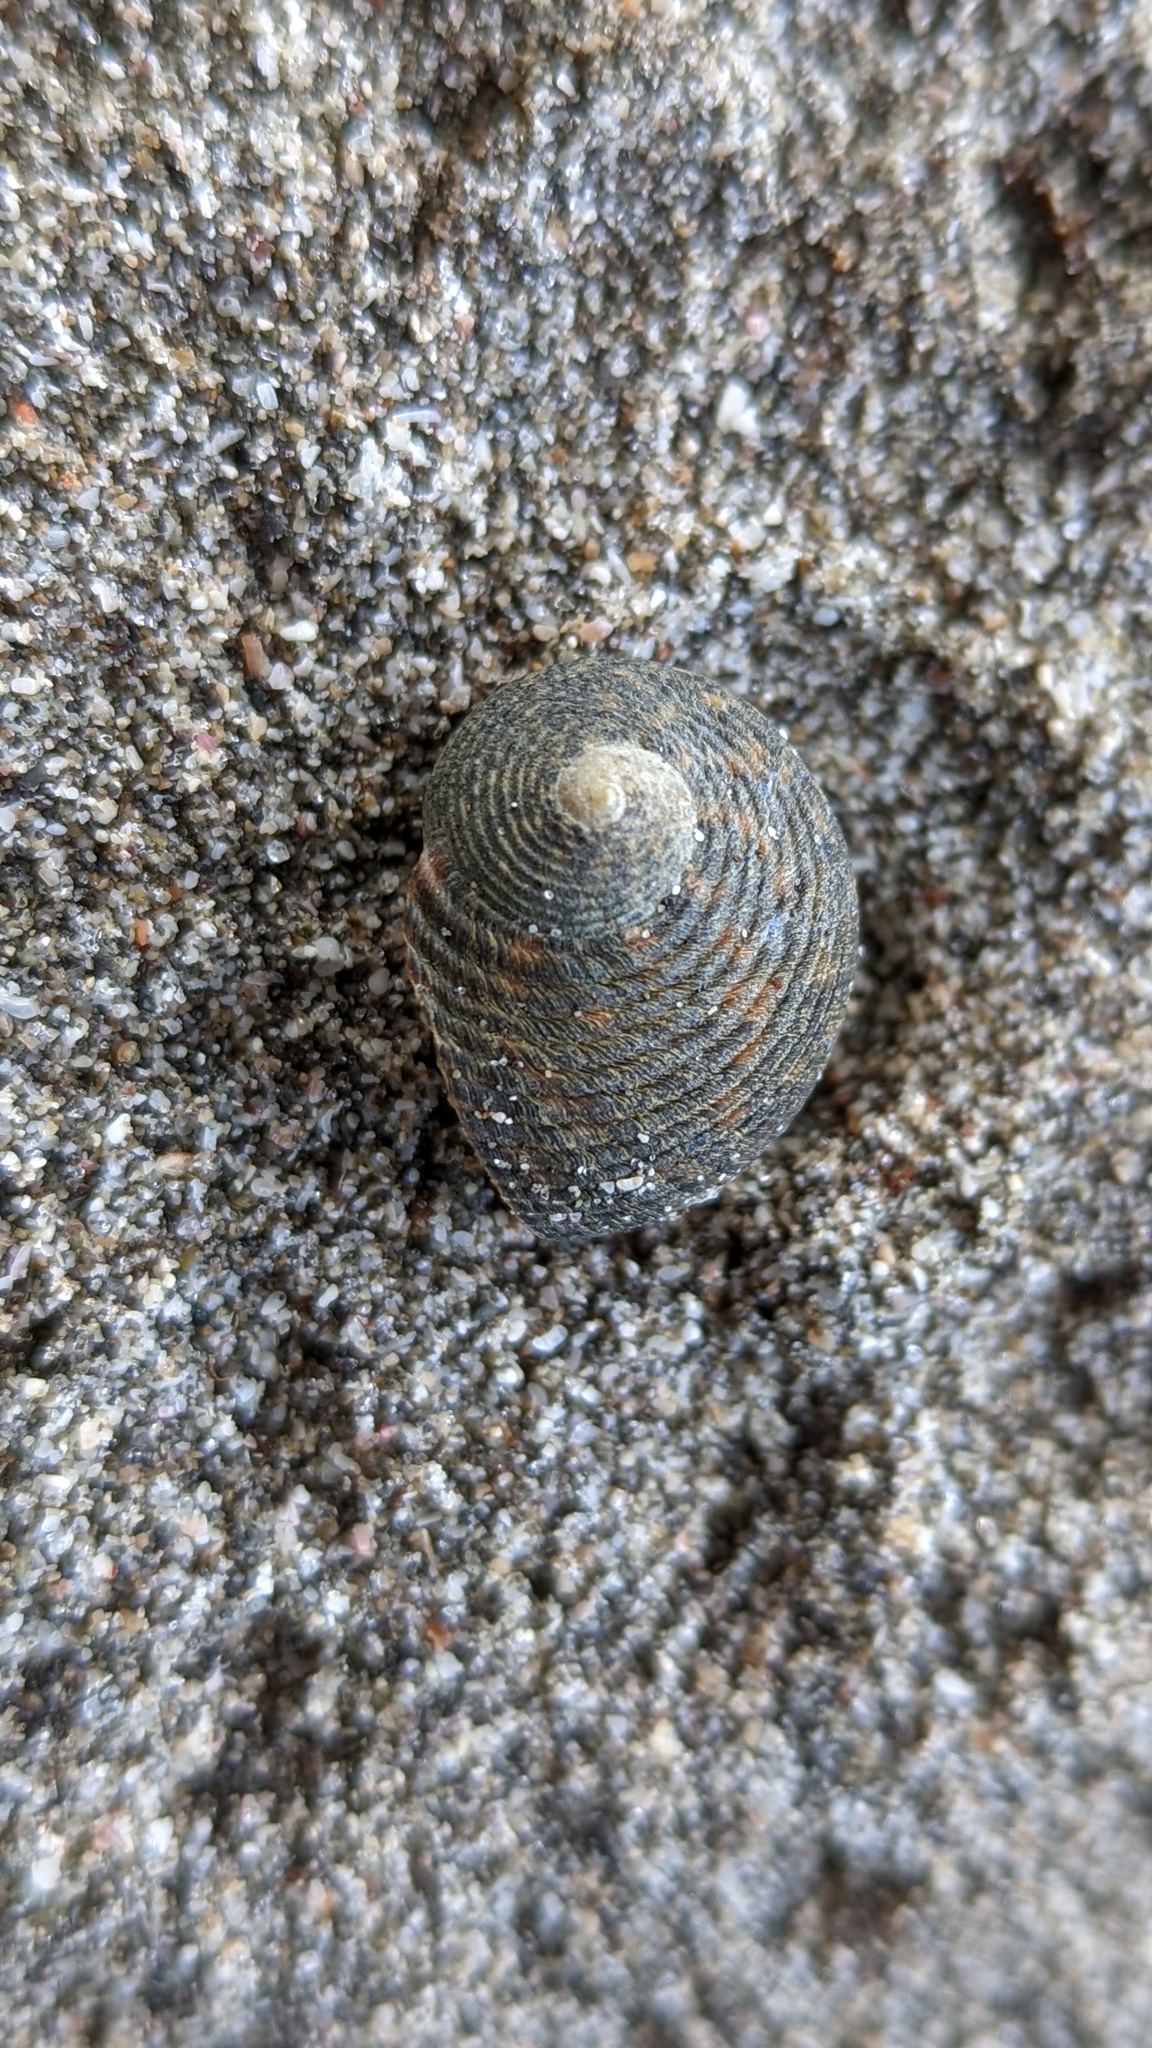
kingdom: Animalia
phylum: Mollusca
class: Gastropoda
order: Cycloneritida
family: Neritidae
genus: Nerita
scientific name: Nerita scabricosta
